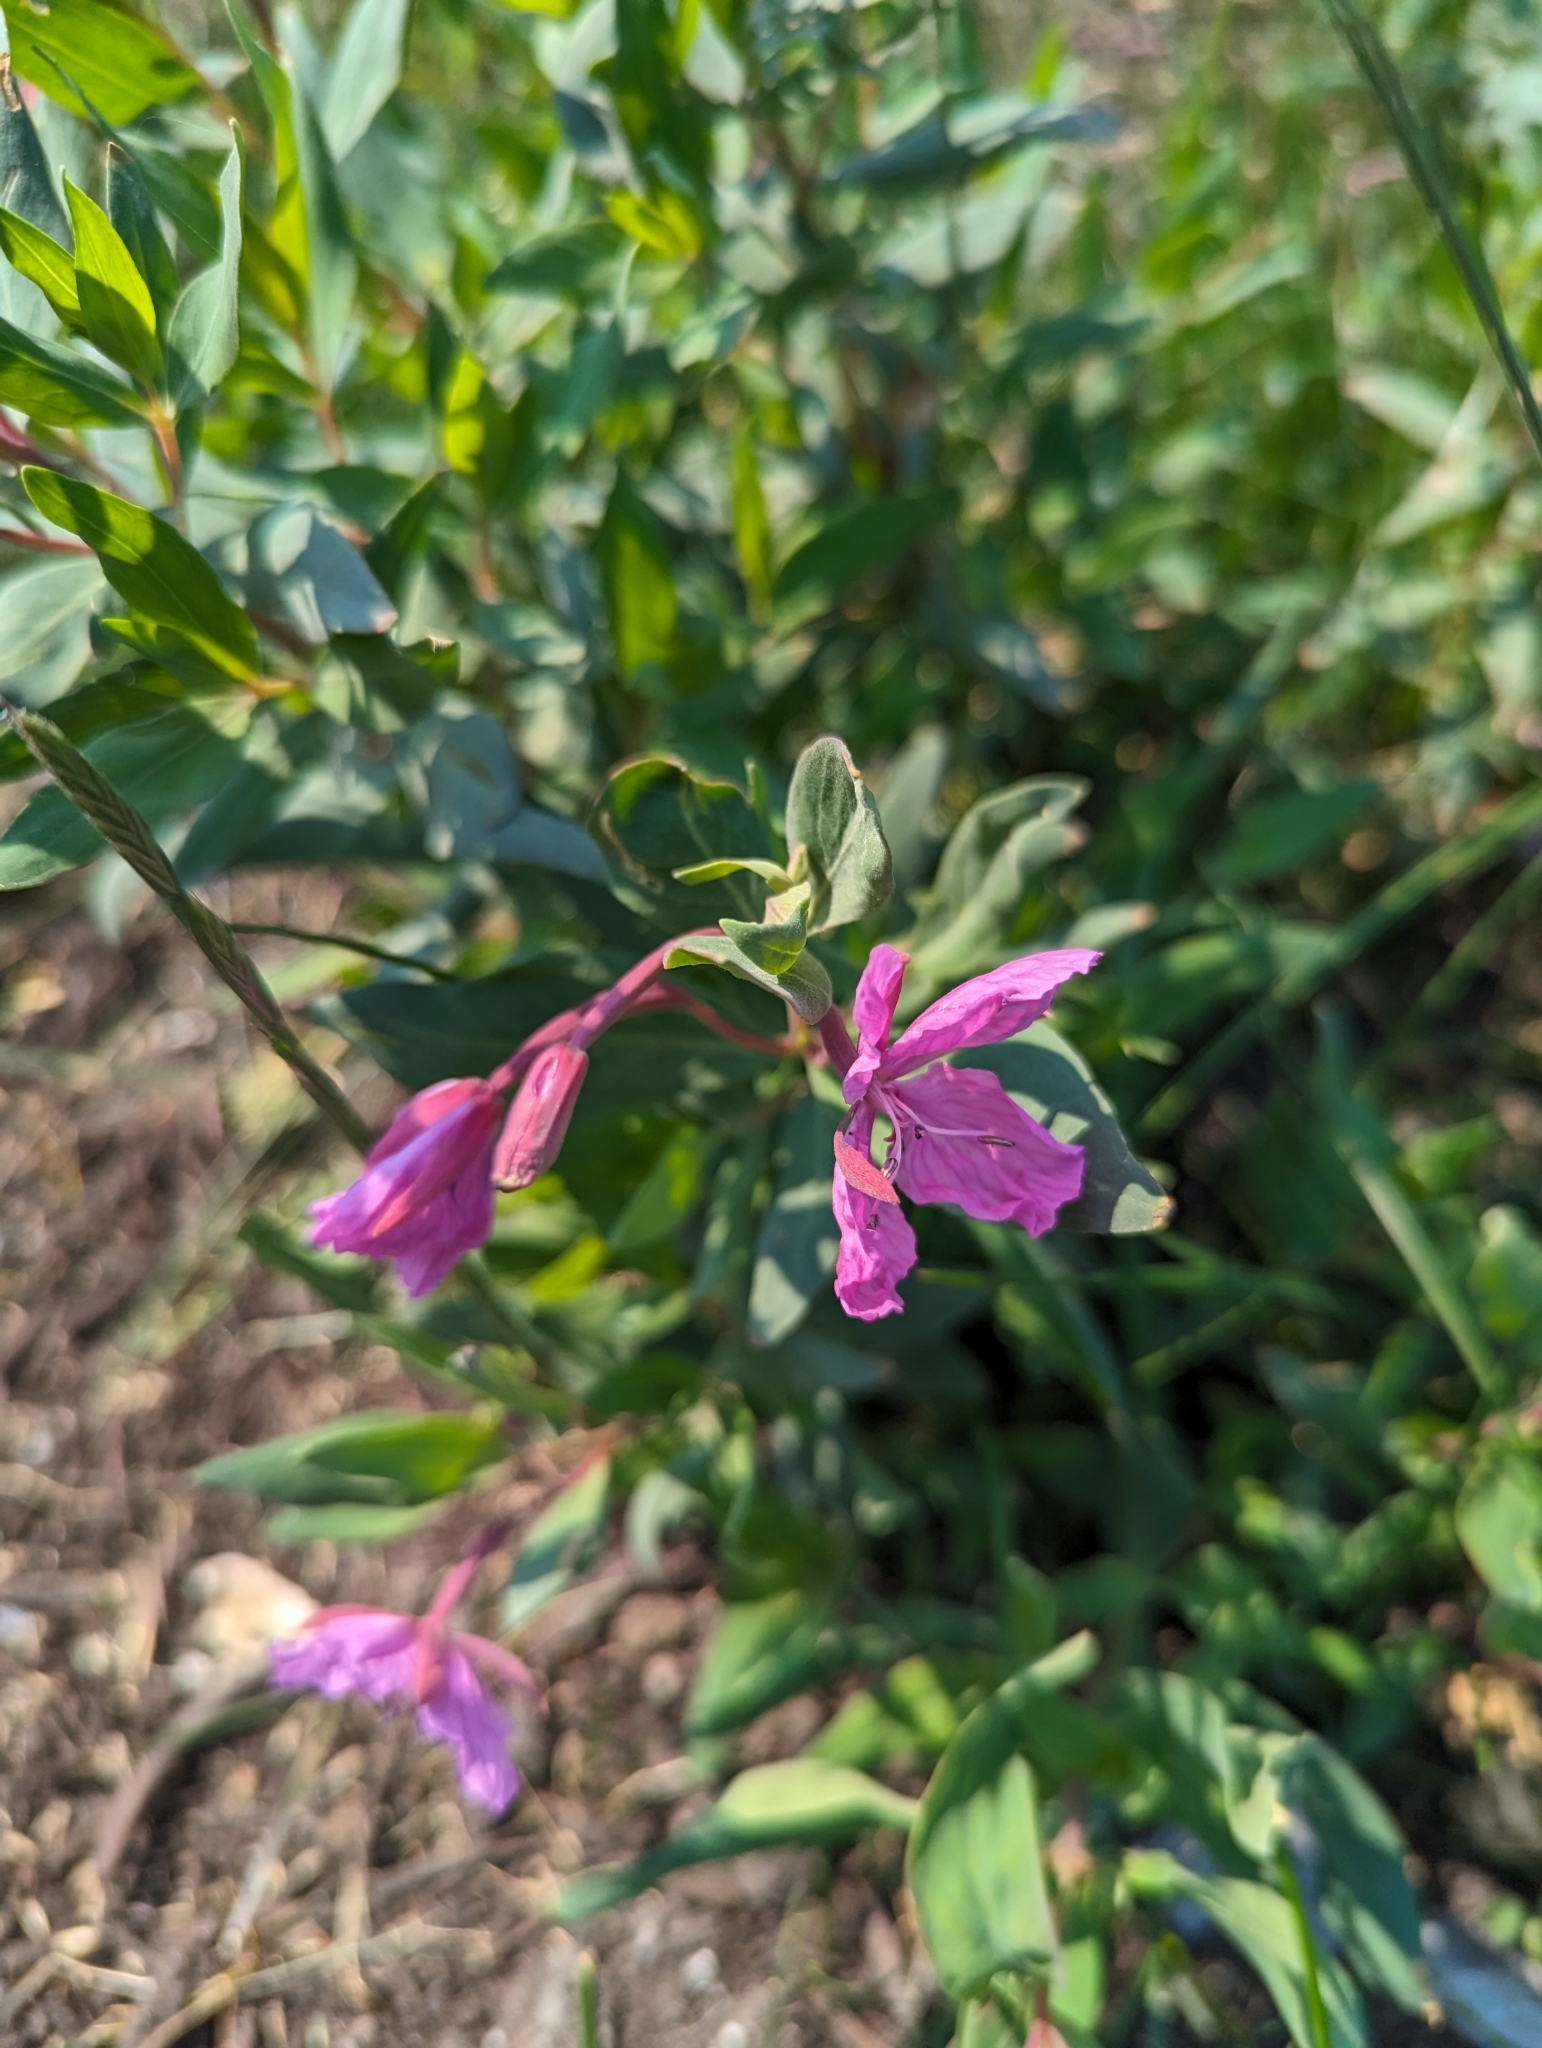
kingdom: Plantae
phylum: Tracheophyta
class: Magnoliopsida
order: Myrtales
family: Onagraceae
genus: Chamaenerion
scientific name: Chamaenerion latifolium
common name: Dwarf fireweed
